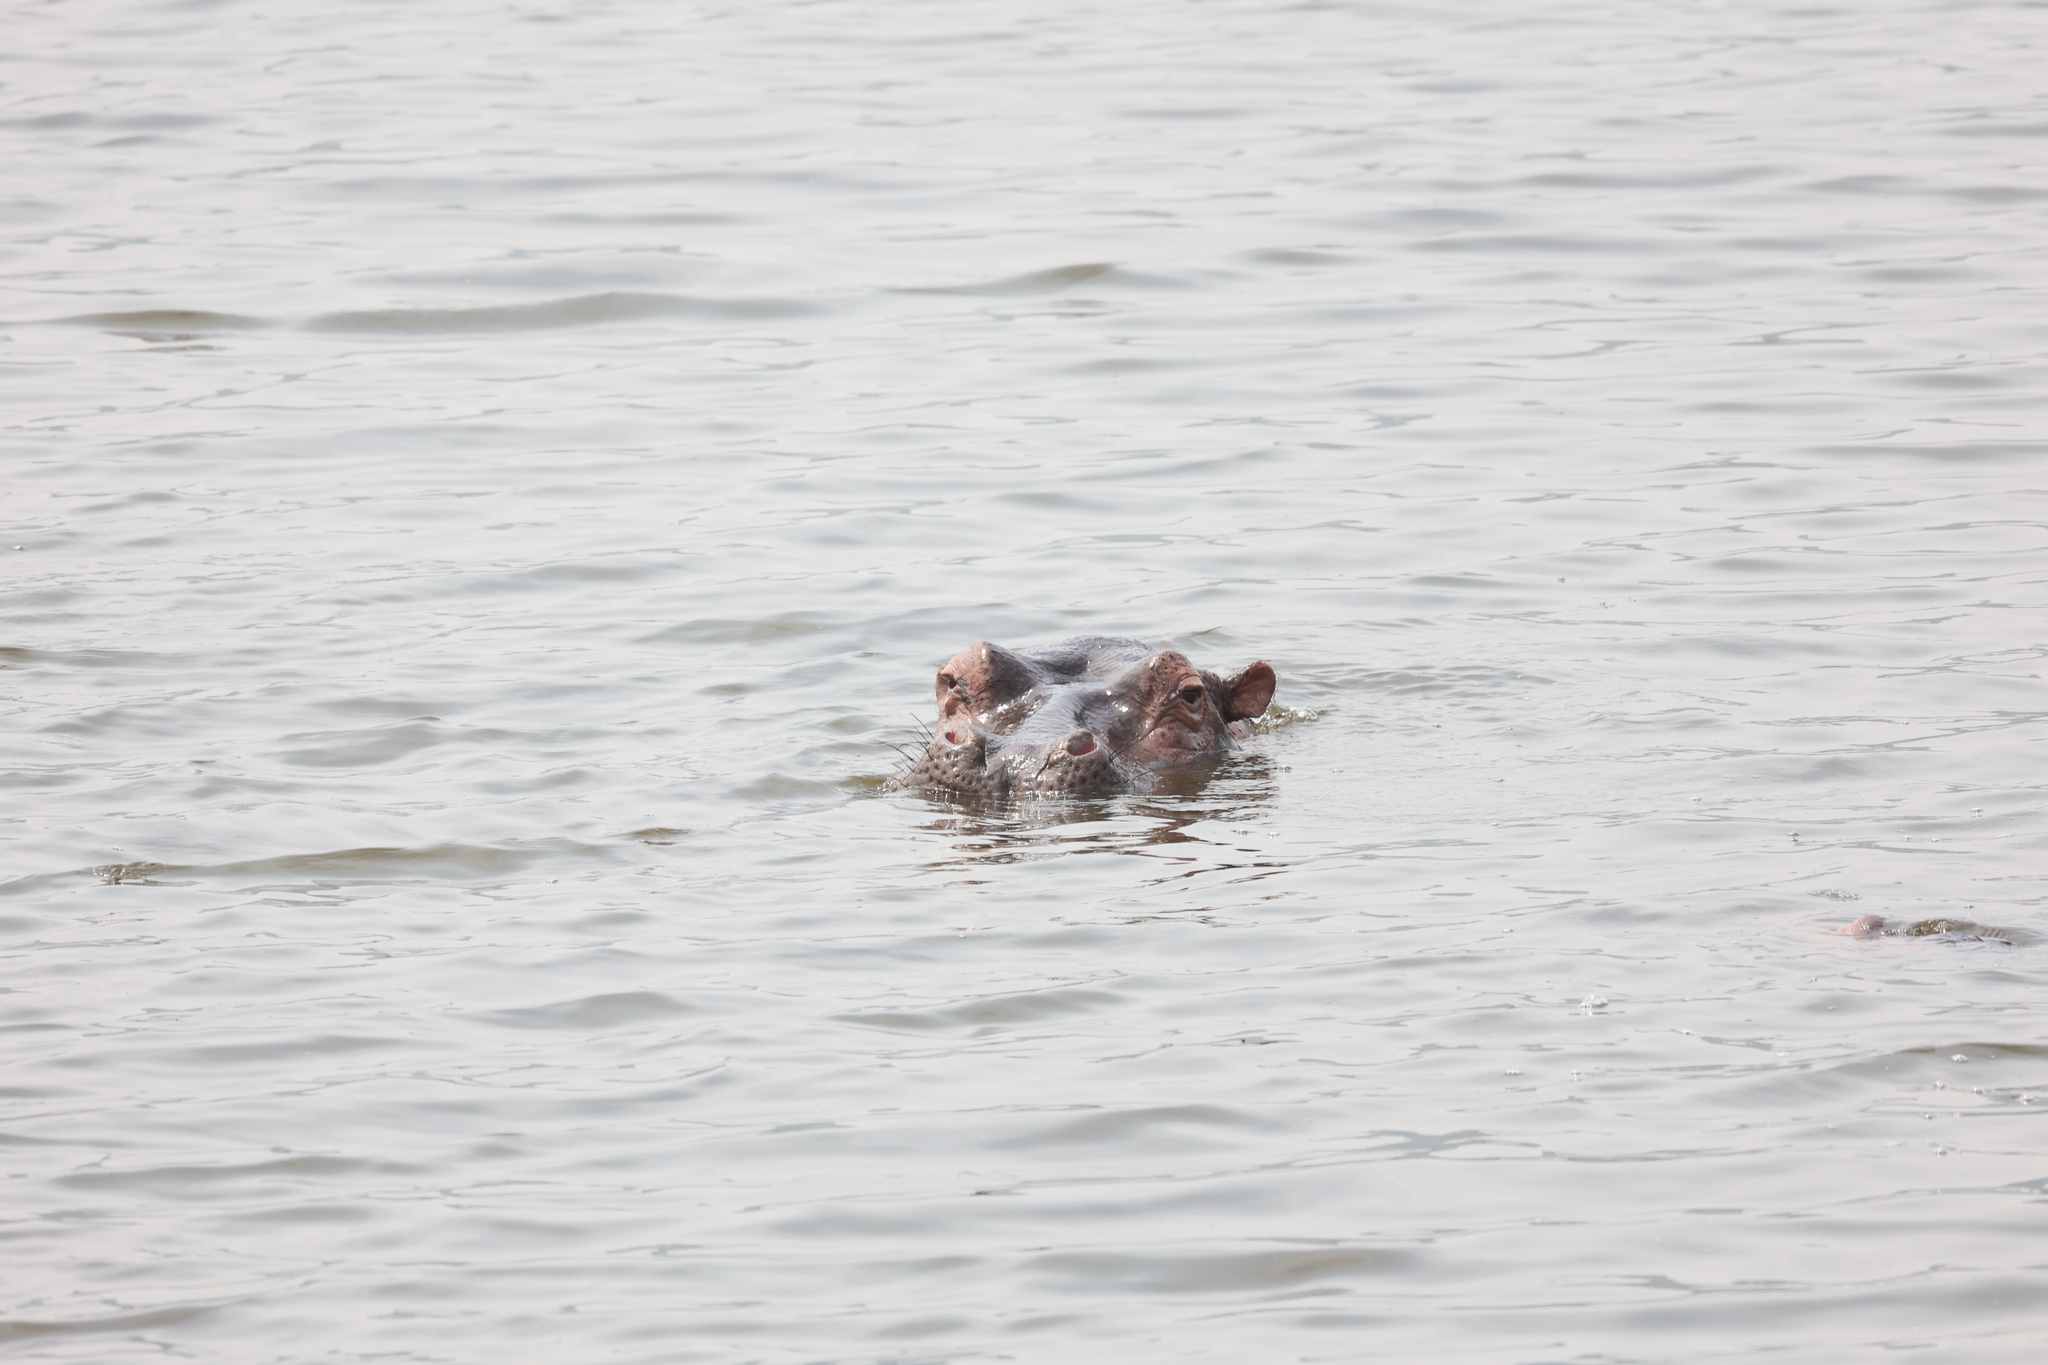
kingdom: Animalia
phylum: Chordata
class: Mammalia
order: Artiodactyla
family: Hippopotamidae
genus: Hippopotamus
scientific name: Hippopotamus amphibius
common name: Common hippopotamus
